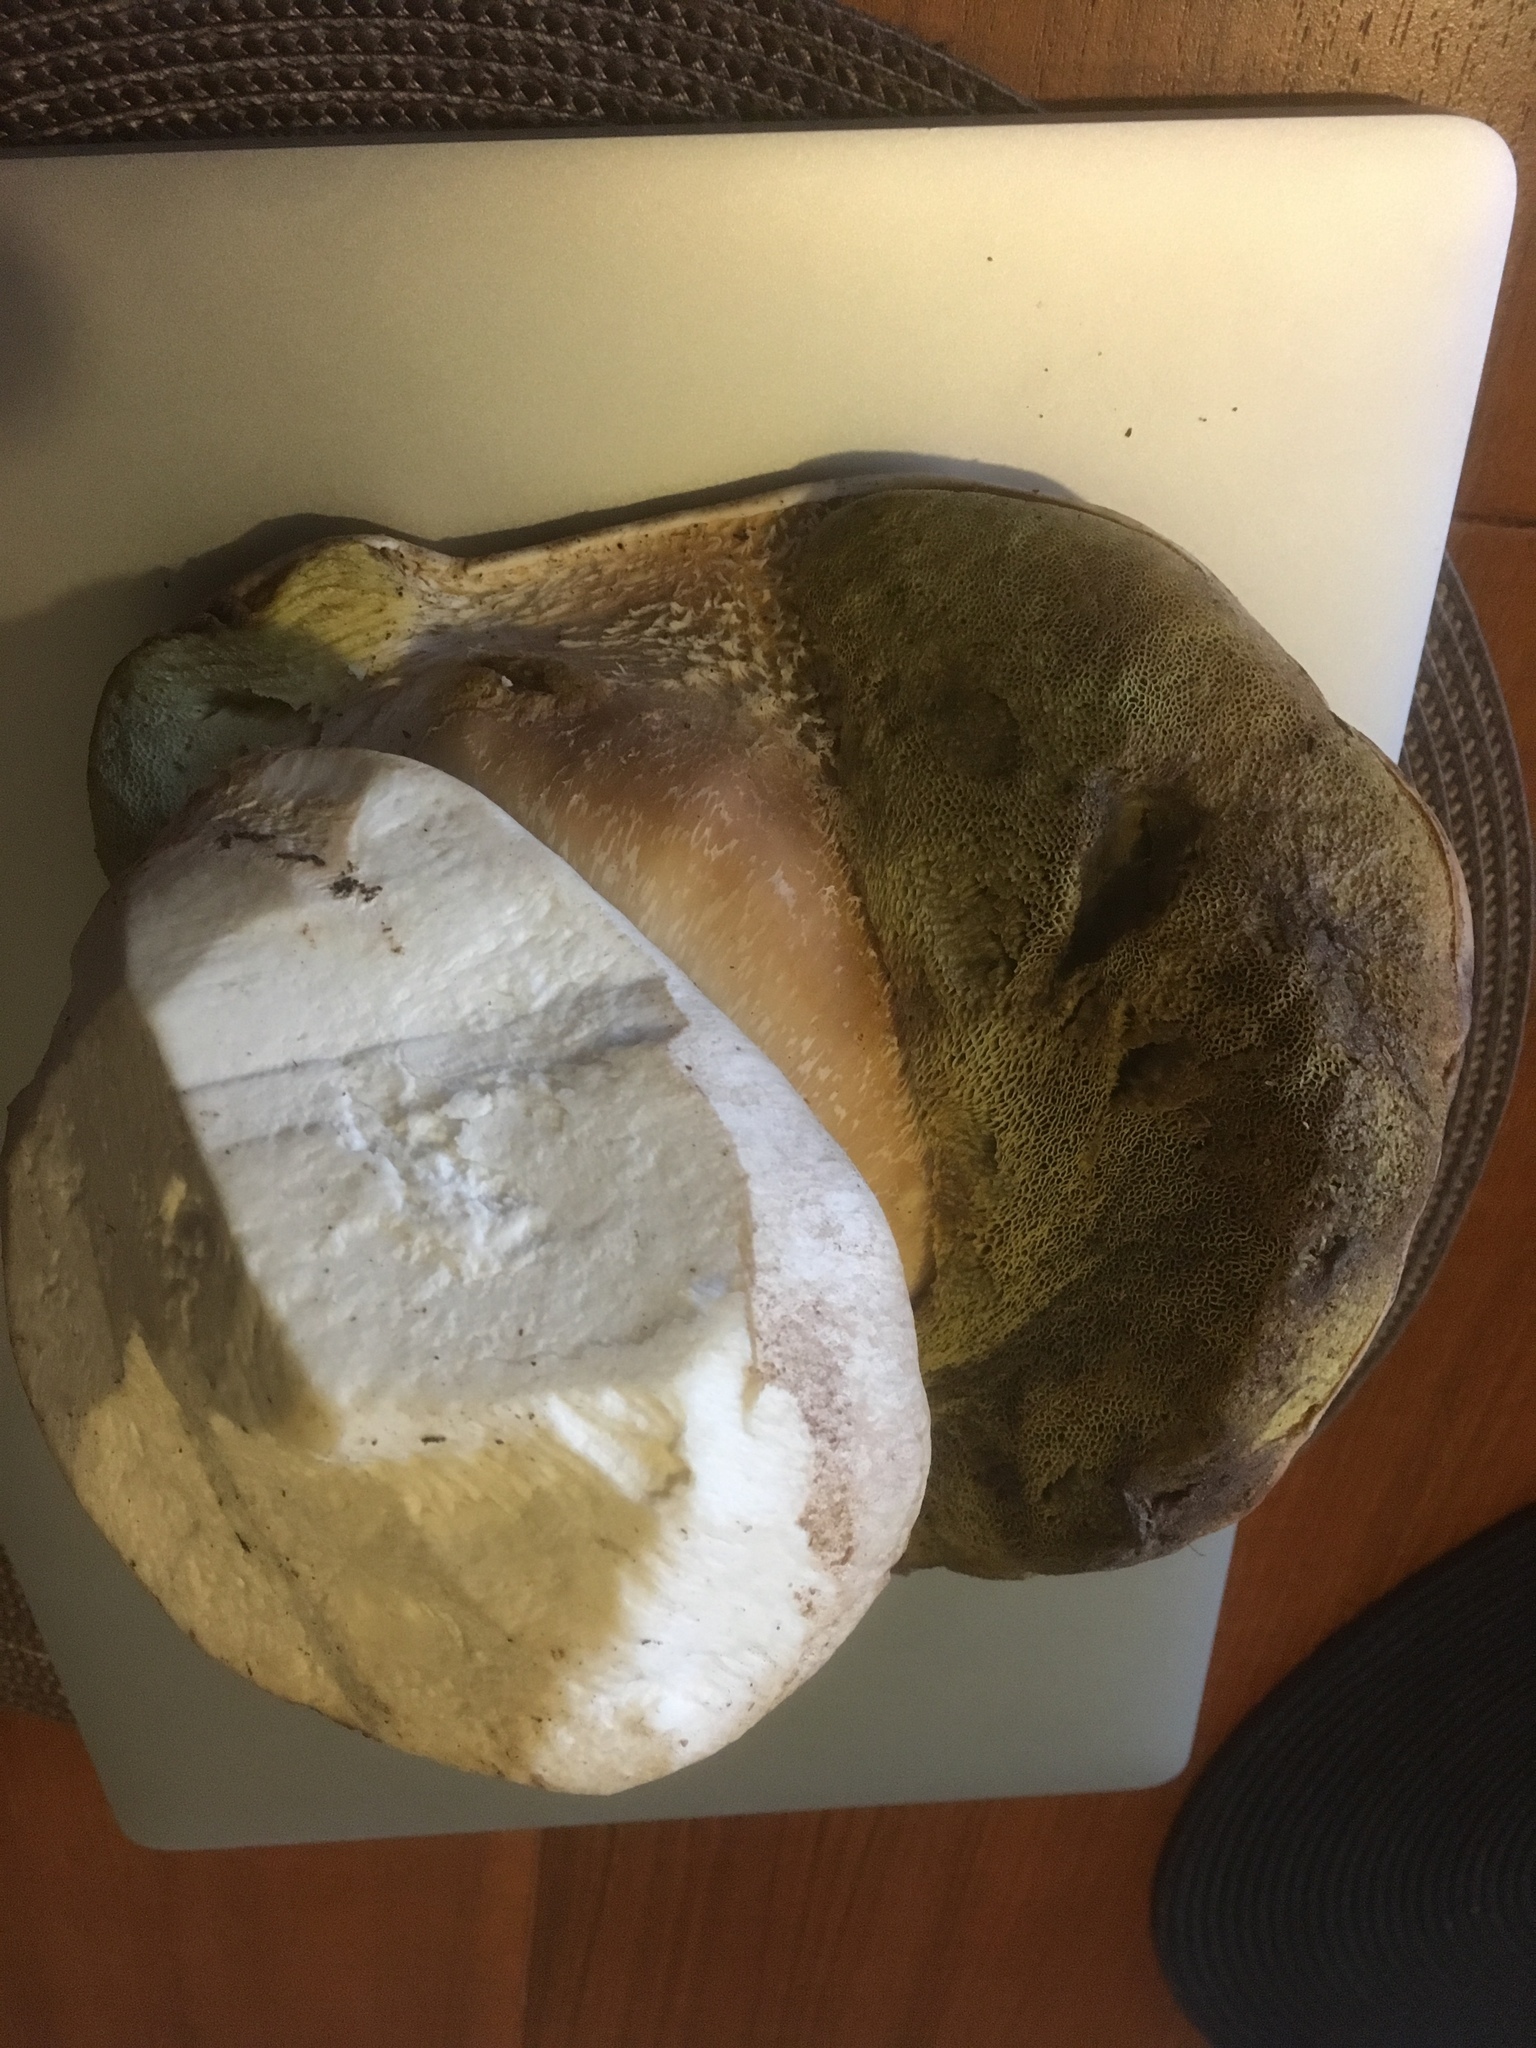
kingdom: Fungi
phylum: Basidiomycota
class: Agaricomycetes
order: Boletales
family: Boletaceae
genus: Boletus
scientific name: Boletus edulis
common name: Cep
